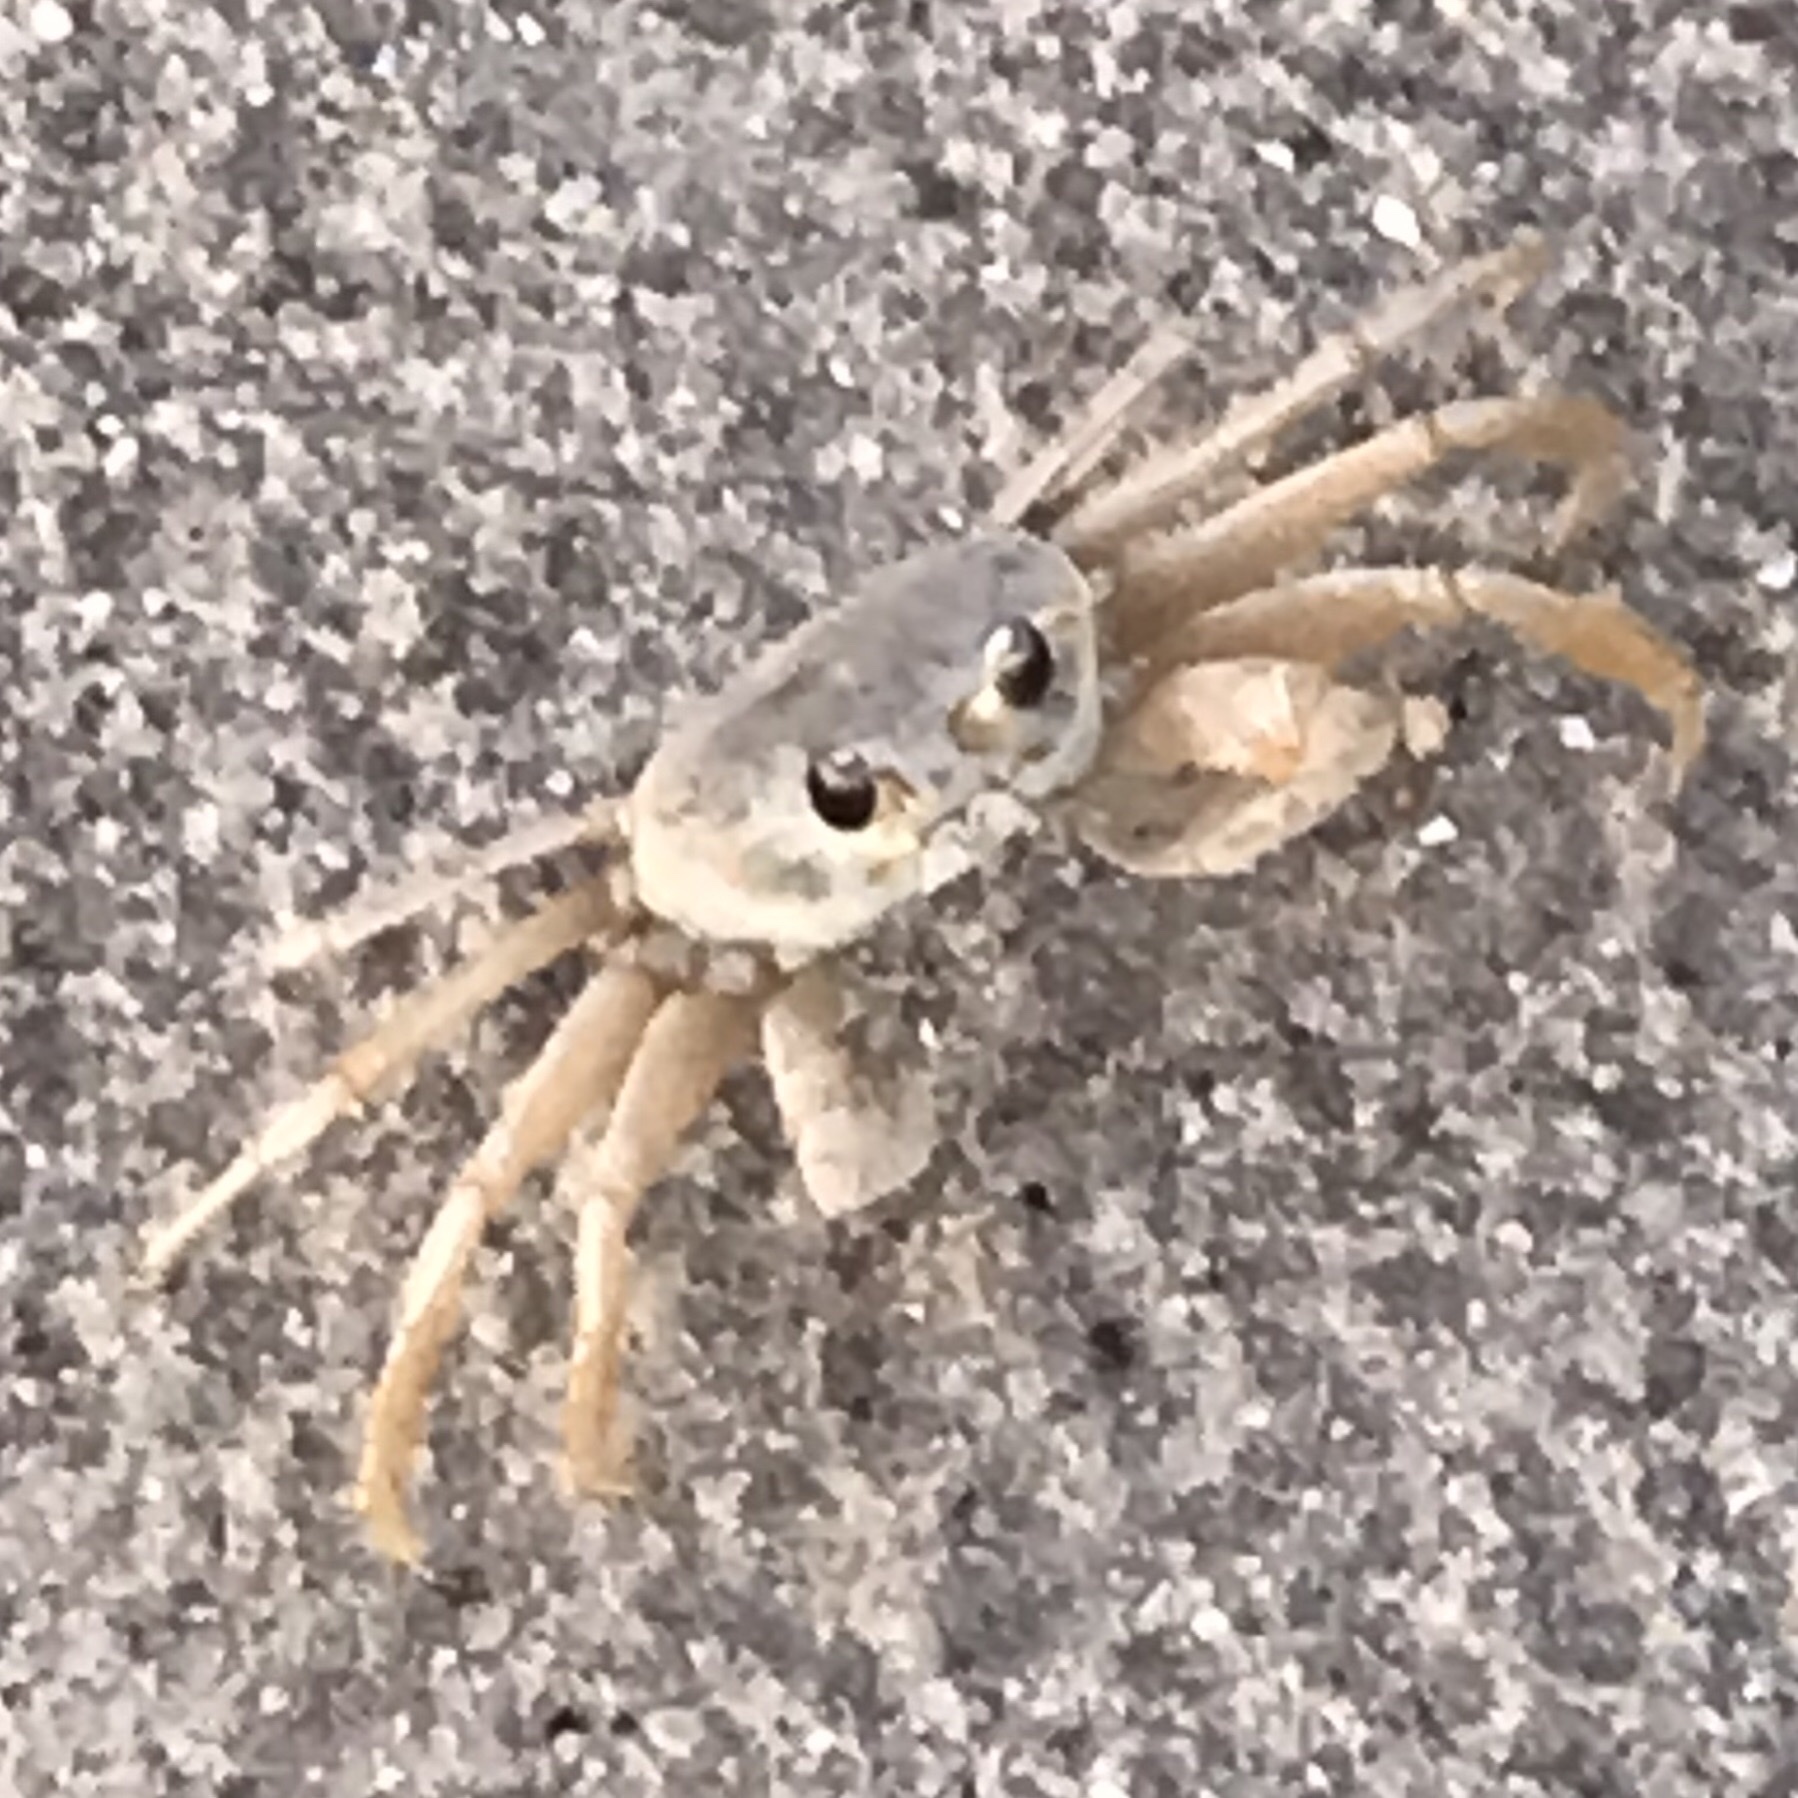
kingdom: Animalia
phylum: Arthropoda
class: Malacostraca
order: Decapoda
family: Ocypodidae
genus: Ocypode
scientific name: Ocypode quadrata
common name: Ghost crab
